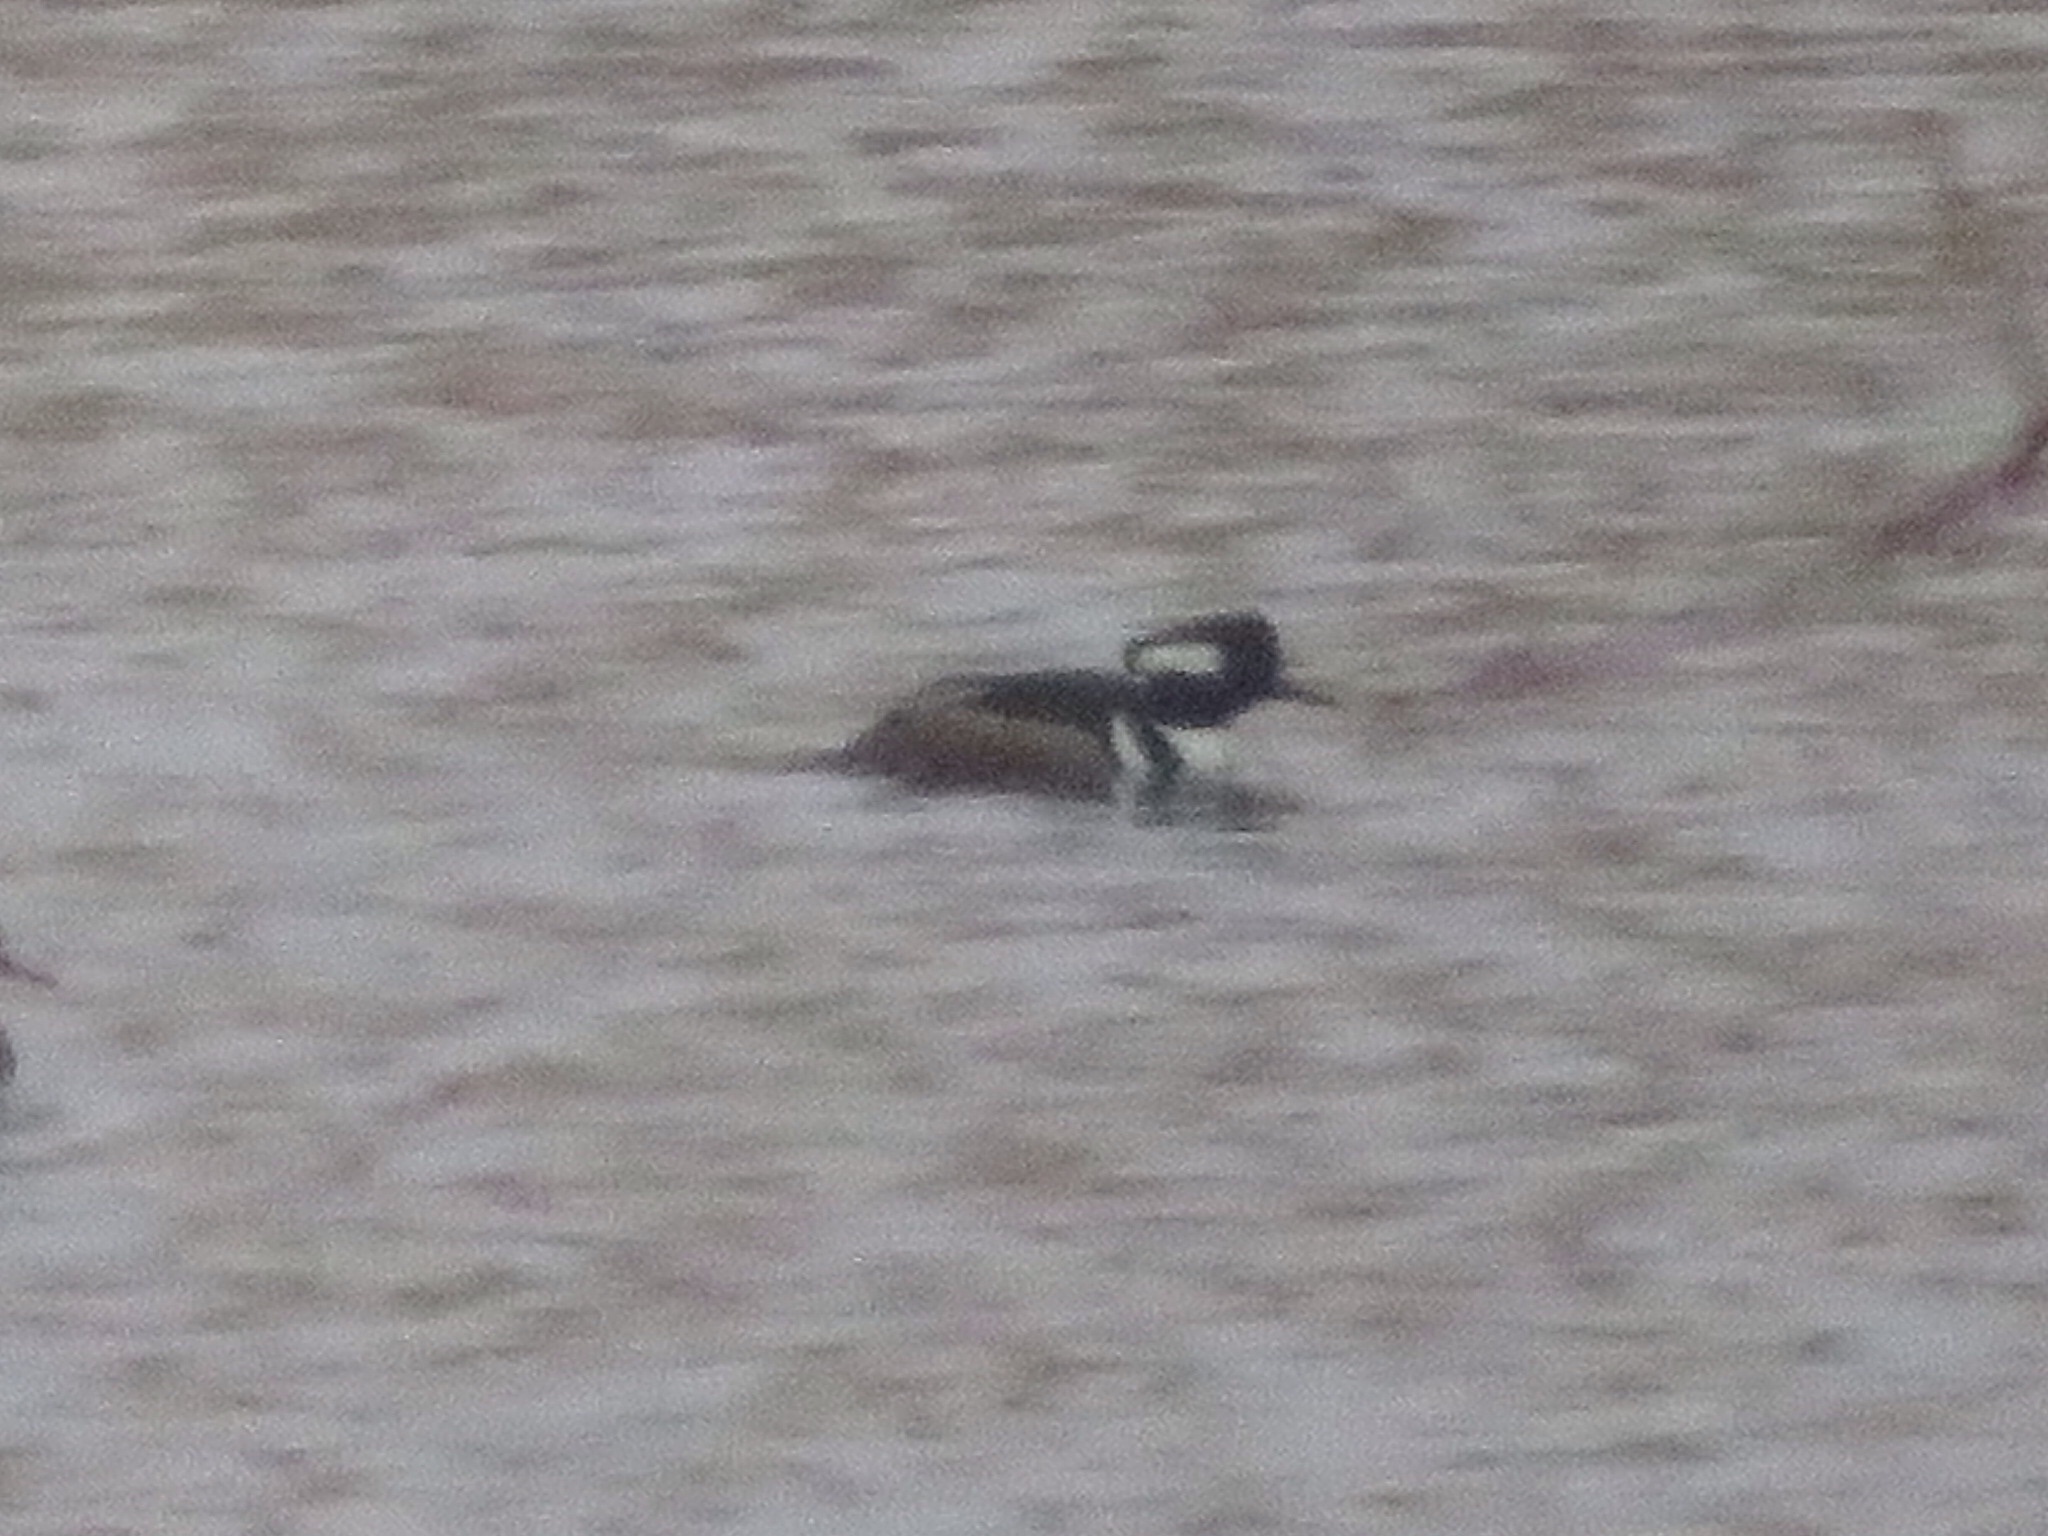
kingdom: Animalia
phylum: Chordata
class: Aves
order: Anseriformes
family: Anatidae
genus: Lophodytes
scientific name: Lophodytes cucullatus
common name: Hooded merganser
